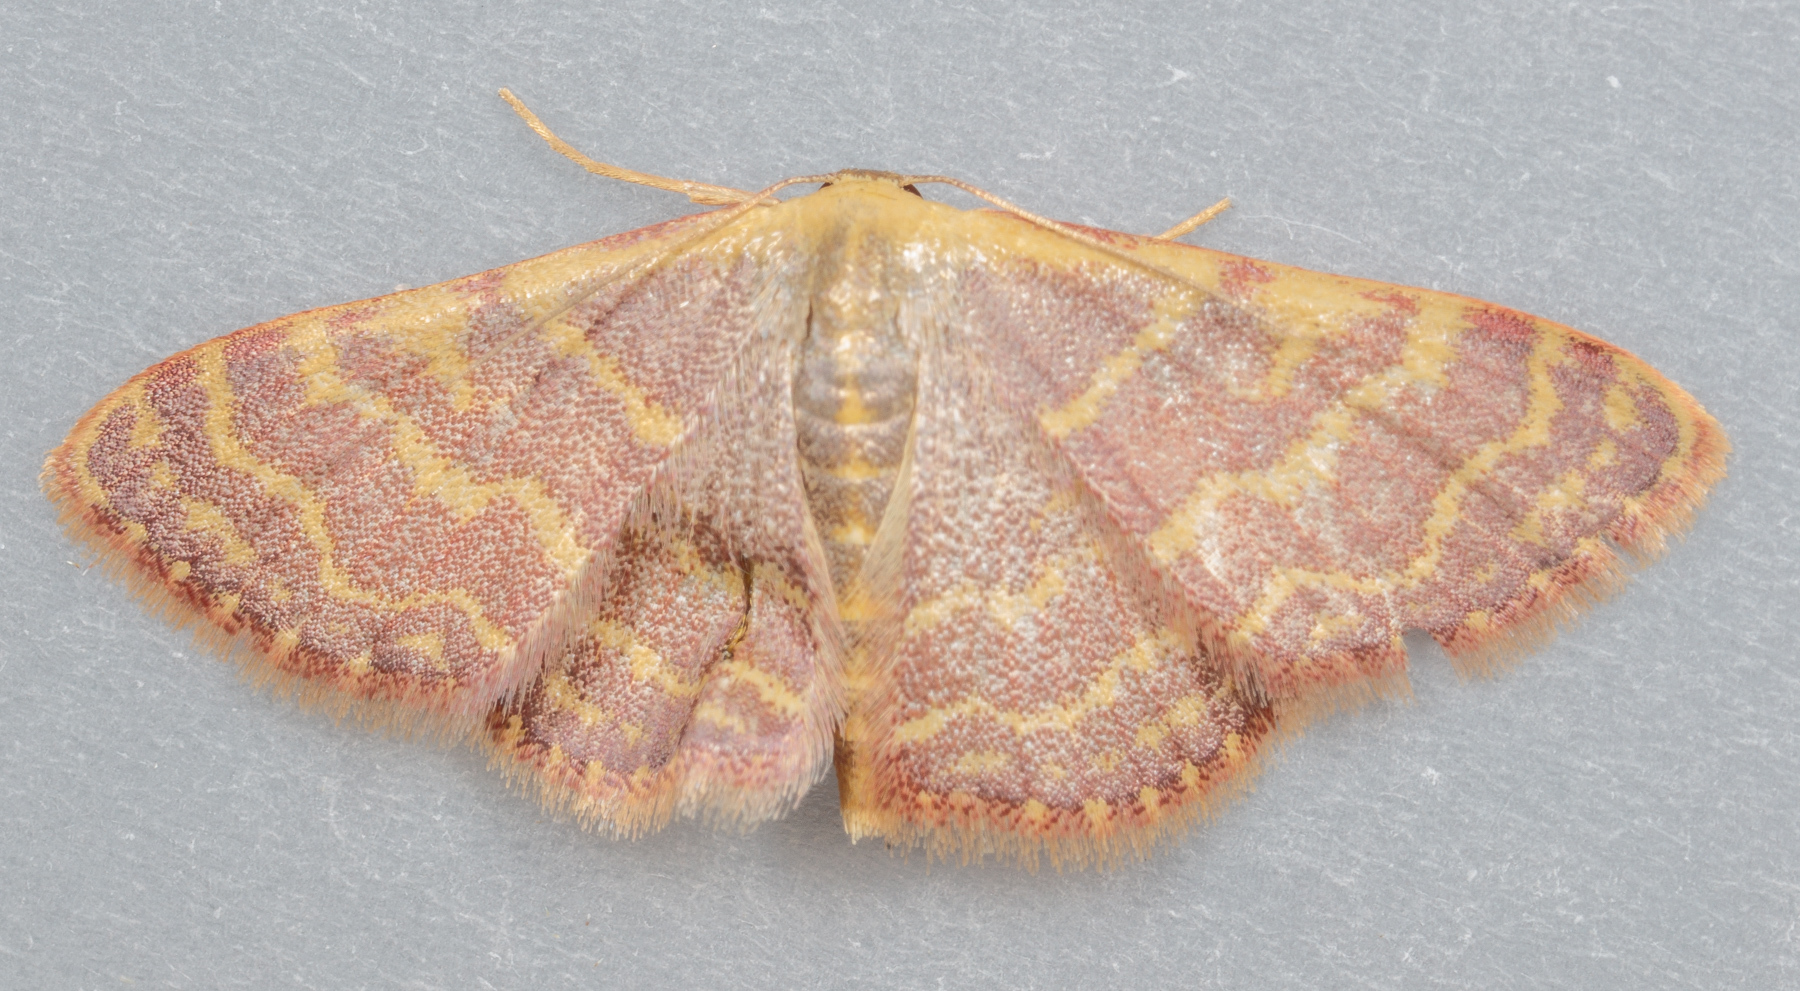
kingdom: Animalia
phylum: Arthropoda
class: Insecta
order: Lepidoptera
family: Geometridae
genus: Leptostales
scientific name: Leptostales pannaria
